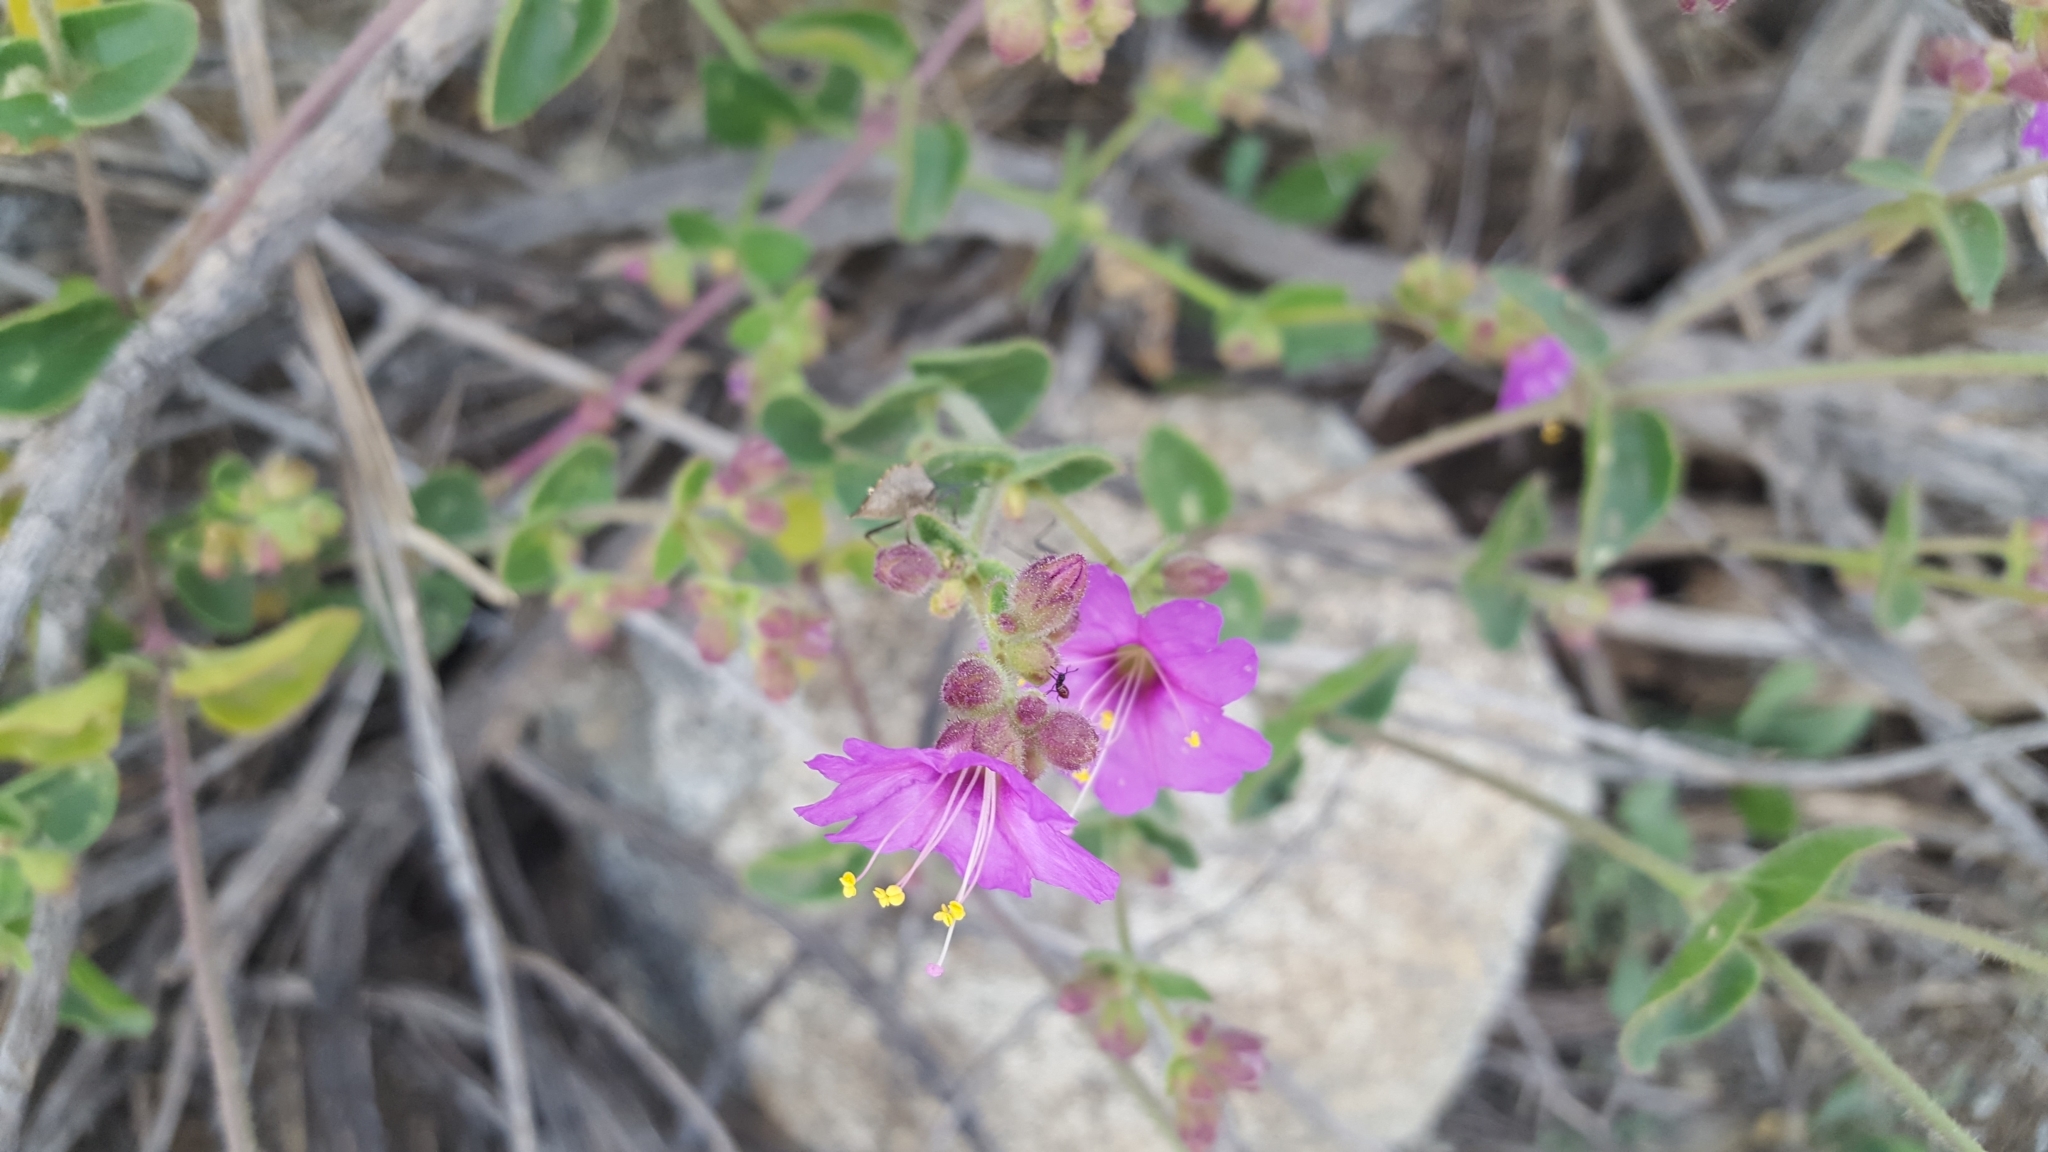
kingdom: Plantae
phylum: Tracheophyta
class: Magnoliopsida
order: Caryophyllales
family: Nyctaginaceae
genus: Mirabilis
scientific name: Mirabilis laevis
